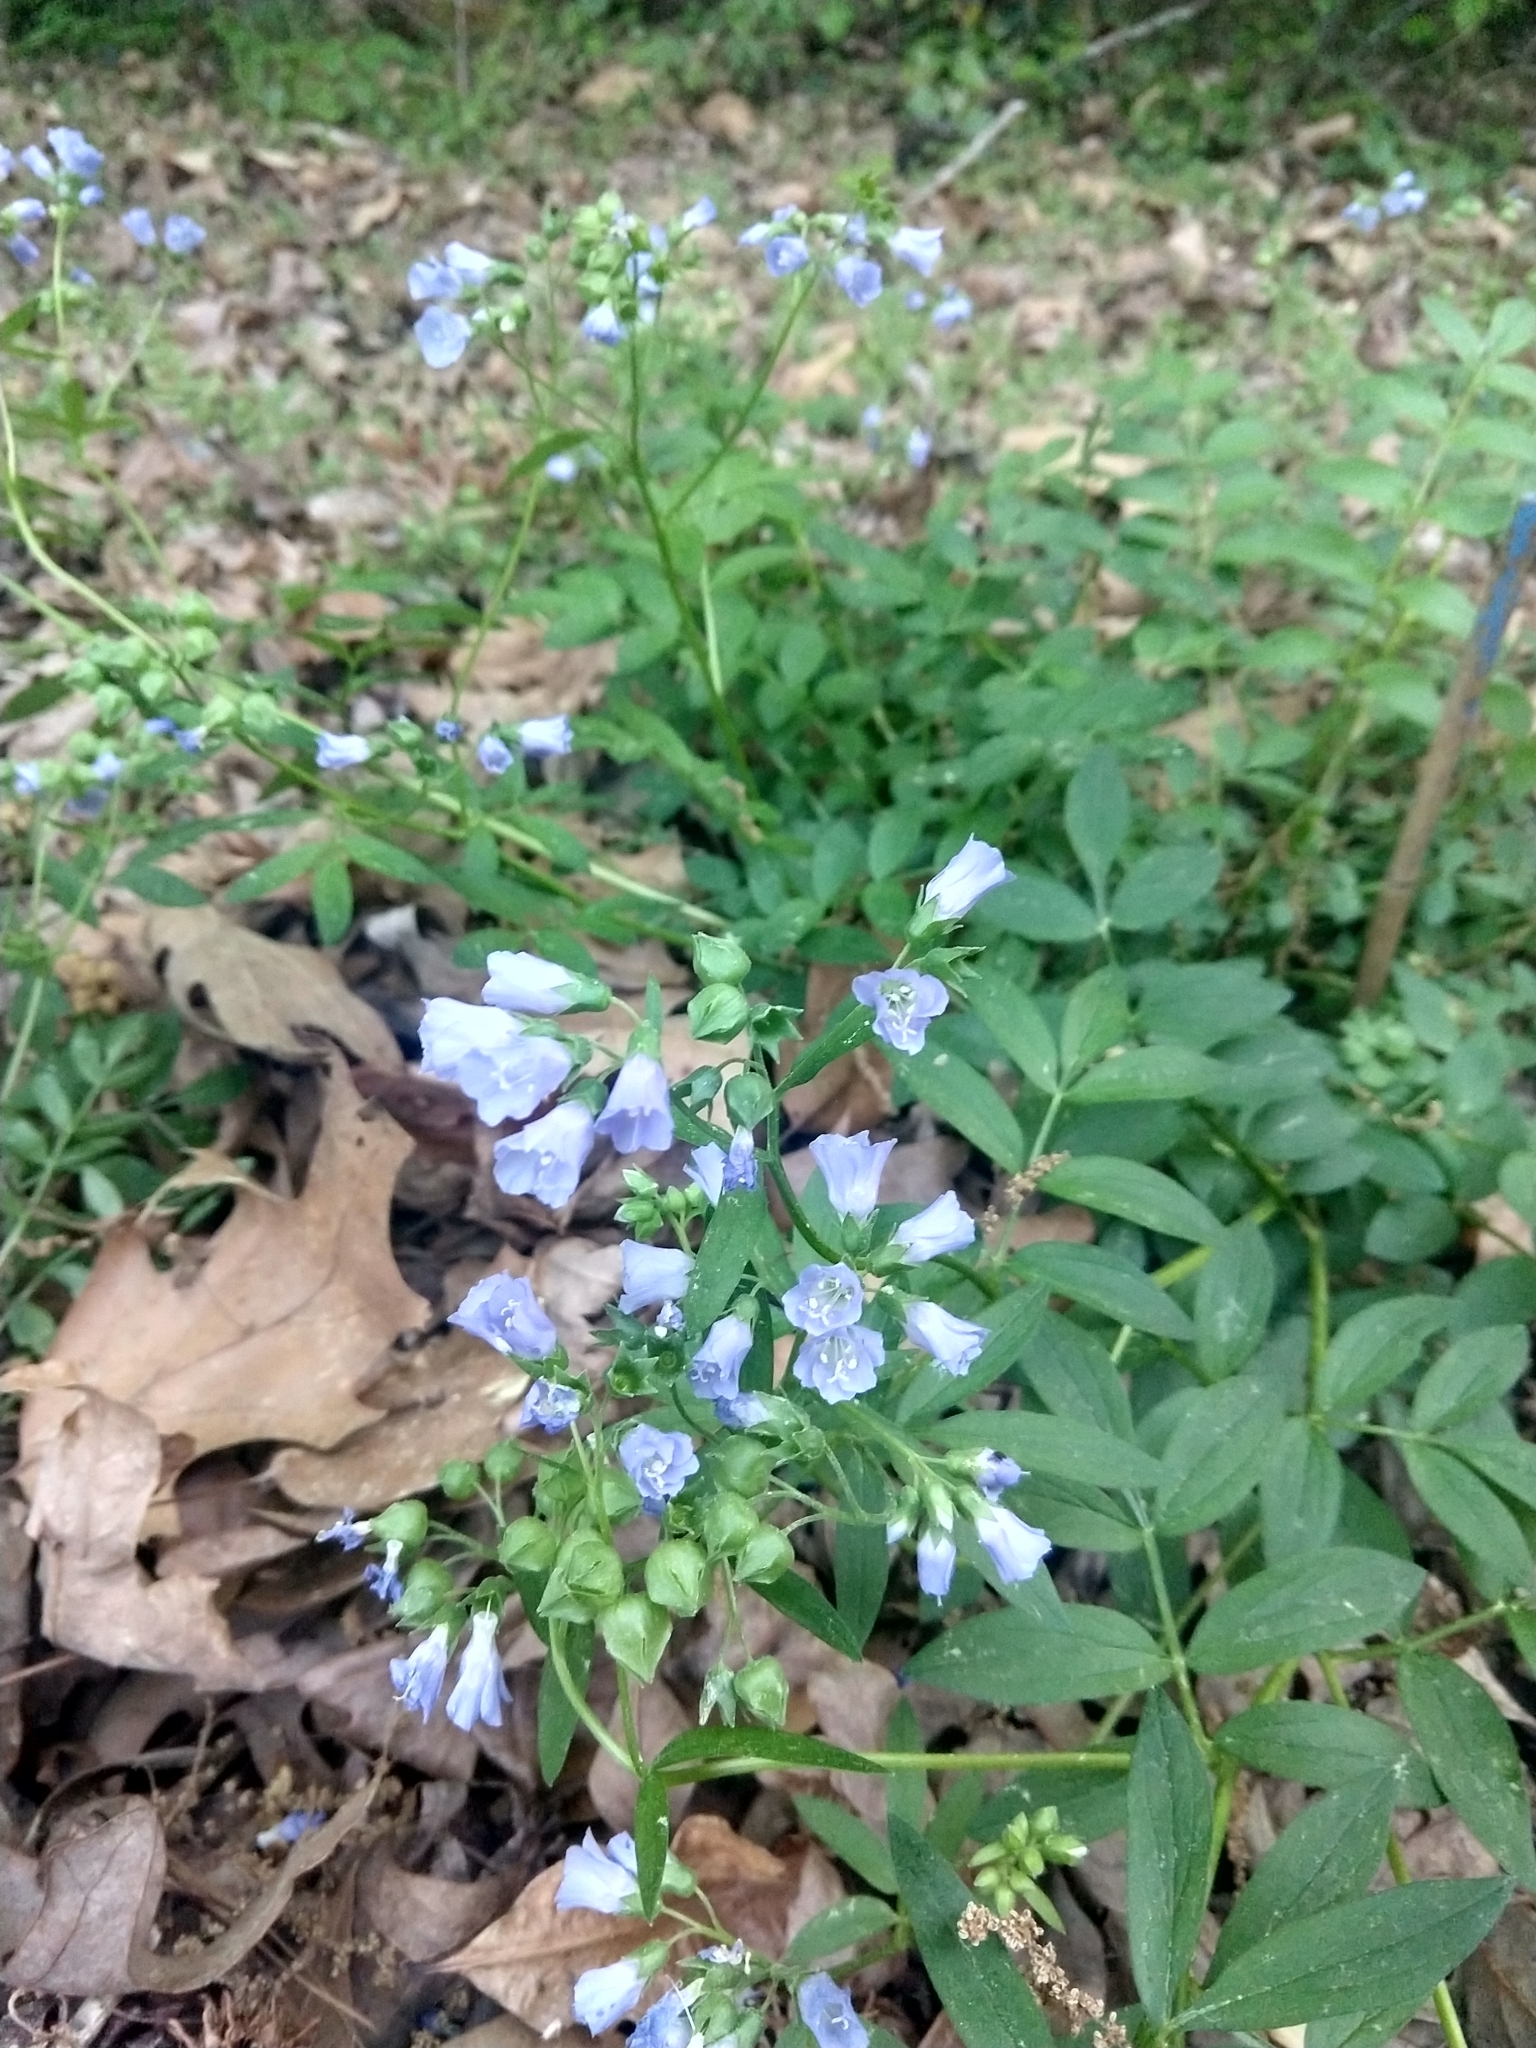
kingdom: Plantae
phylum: Tracheophyta
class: Magnoliopsida
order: Ericales
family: Polemoniaceae
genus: Polemonium
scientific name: Polemonium reptans
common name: Creeping jacob's-ladder
